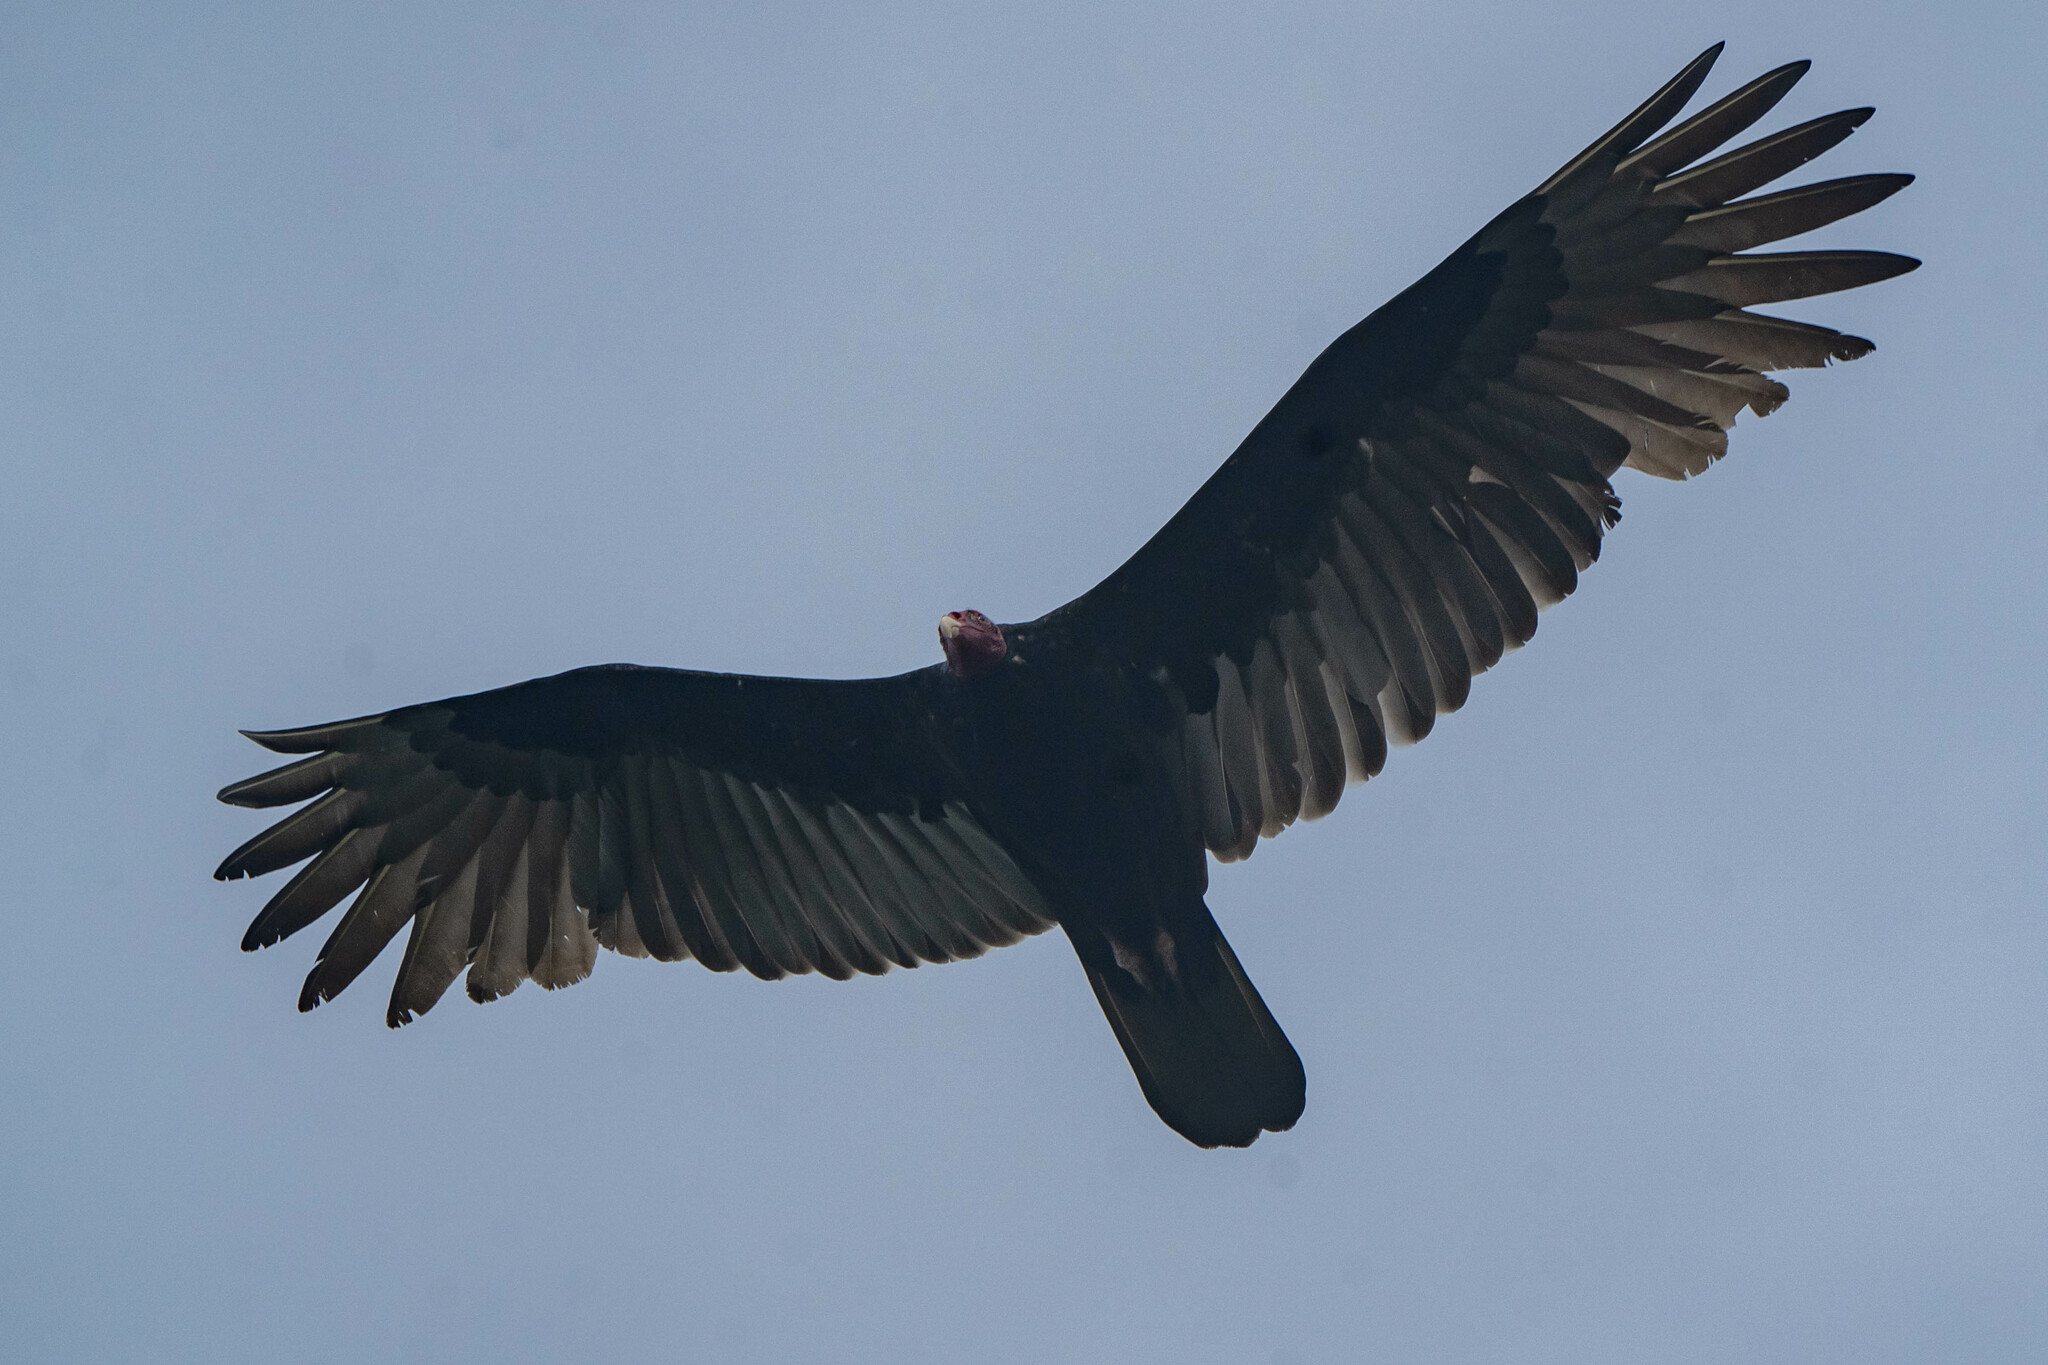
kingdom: Animalia
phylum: Chordata
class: Aves
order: Accipitriformes
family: Cathartidae
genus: Cathartes
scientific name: Cathartes aura
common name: Turkey vulture
